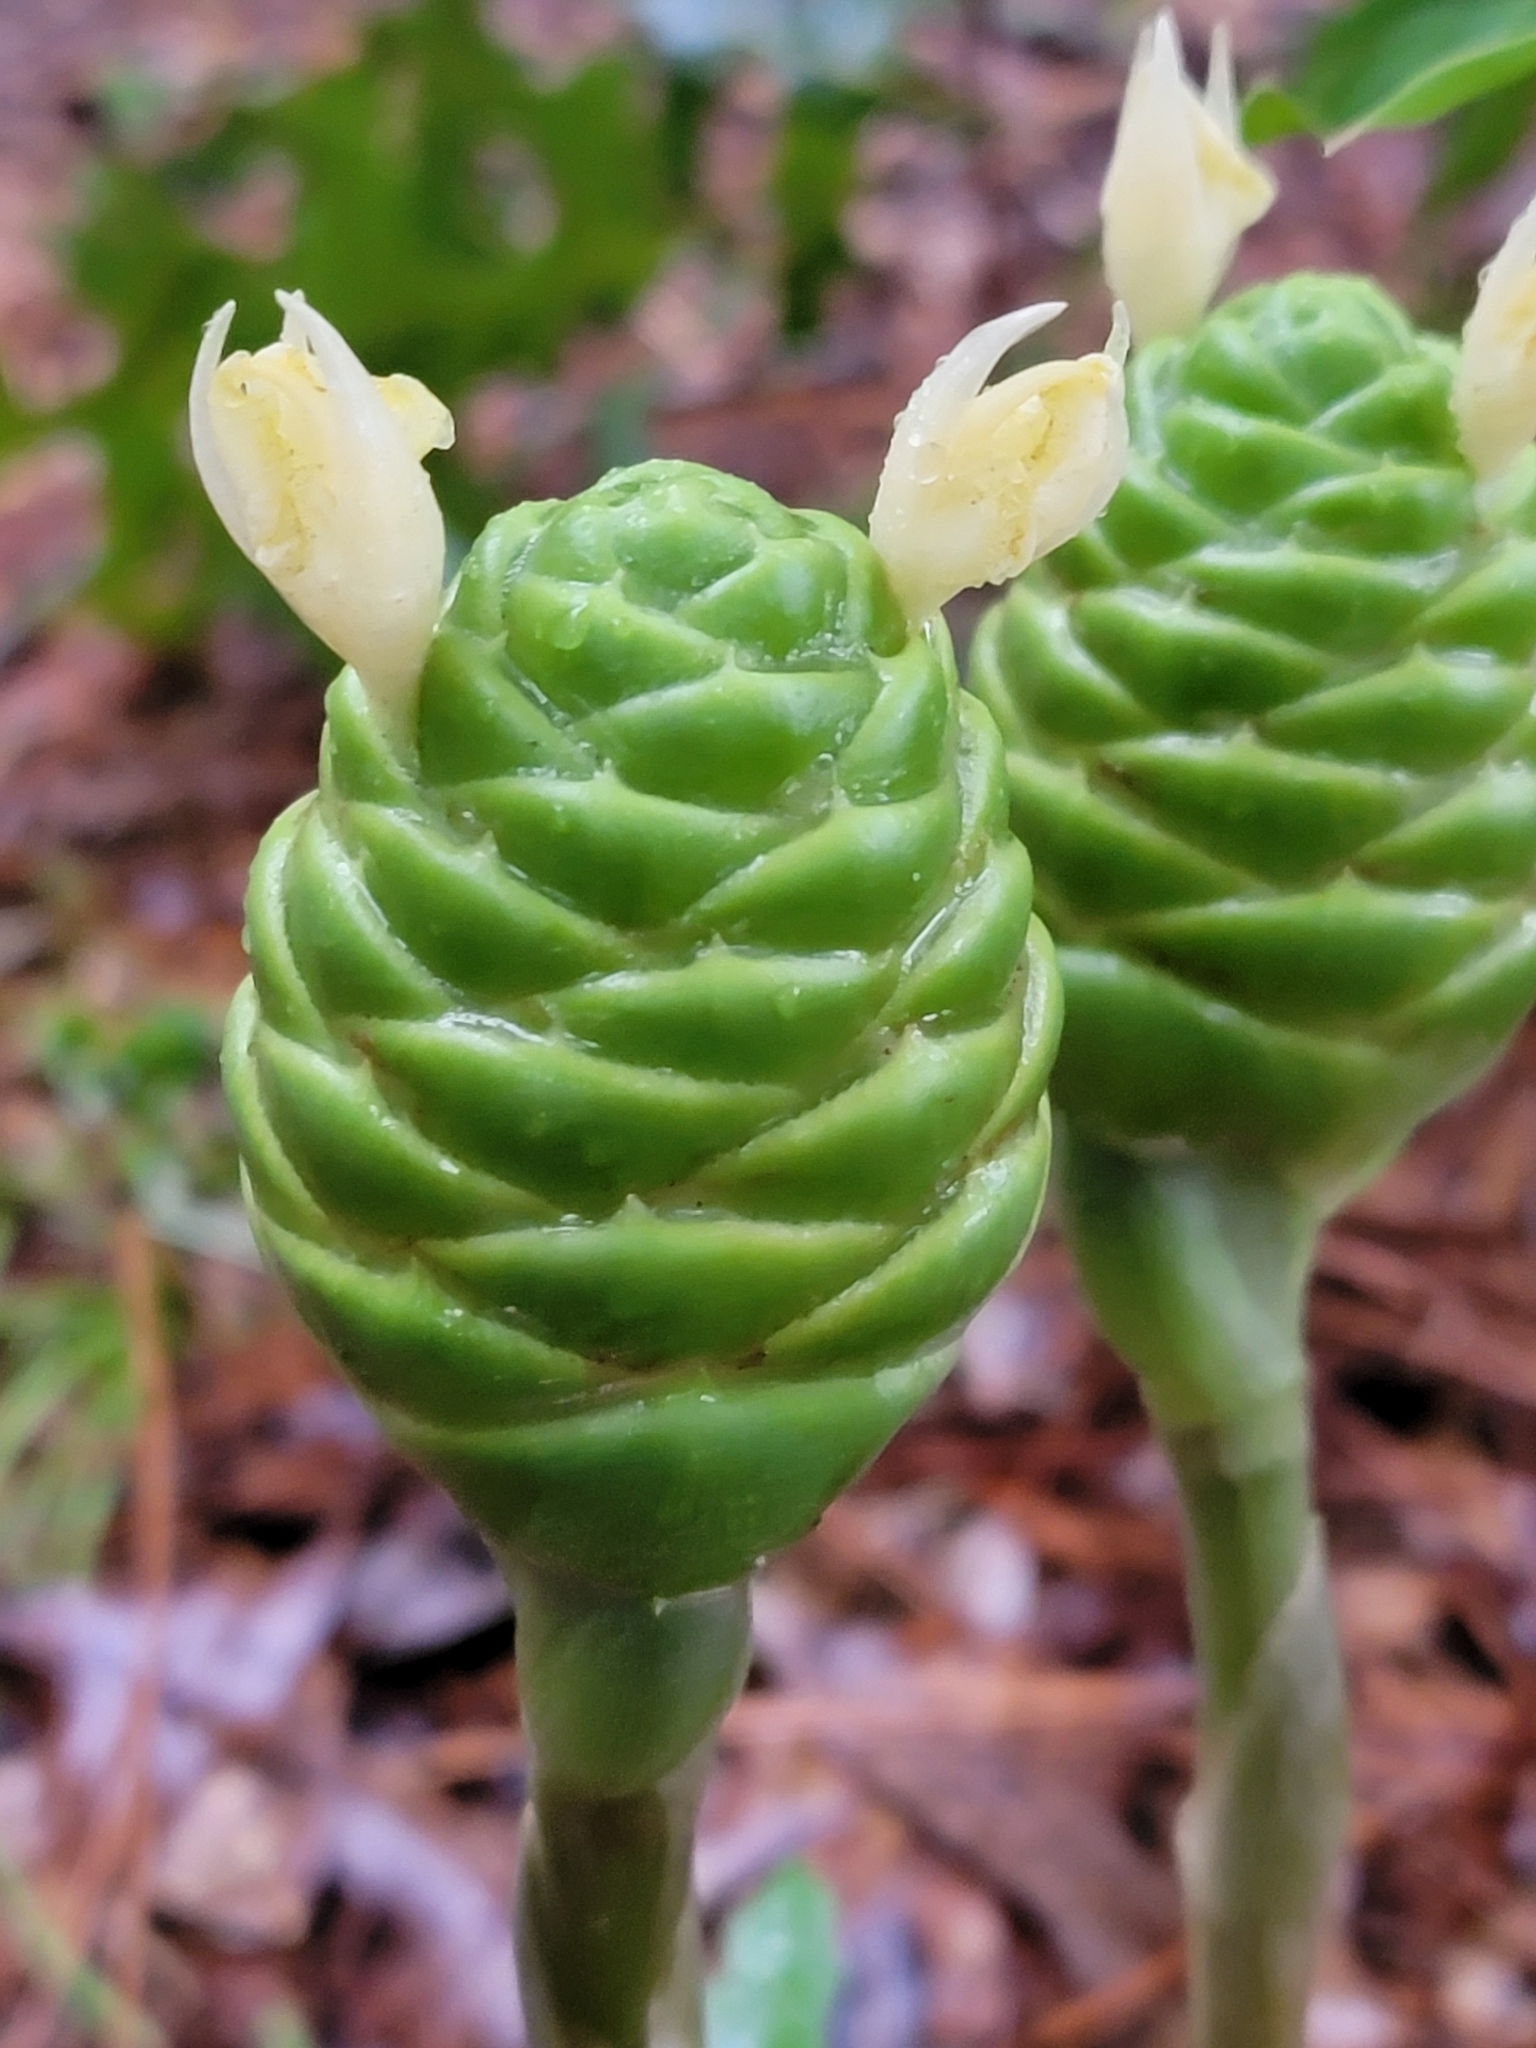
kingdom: Plantae
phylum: Tracheophyta
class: Liliopsida
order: Zingiberales
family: Zingiberaceae
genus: Zingiber
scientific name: Zingiber zerumbet
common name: Bitter ginger
